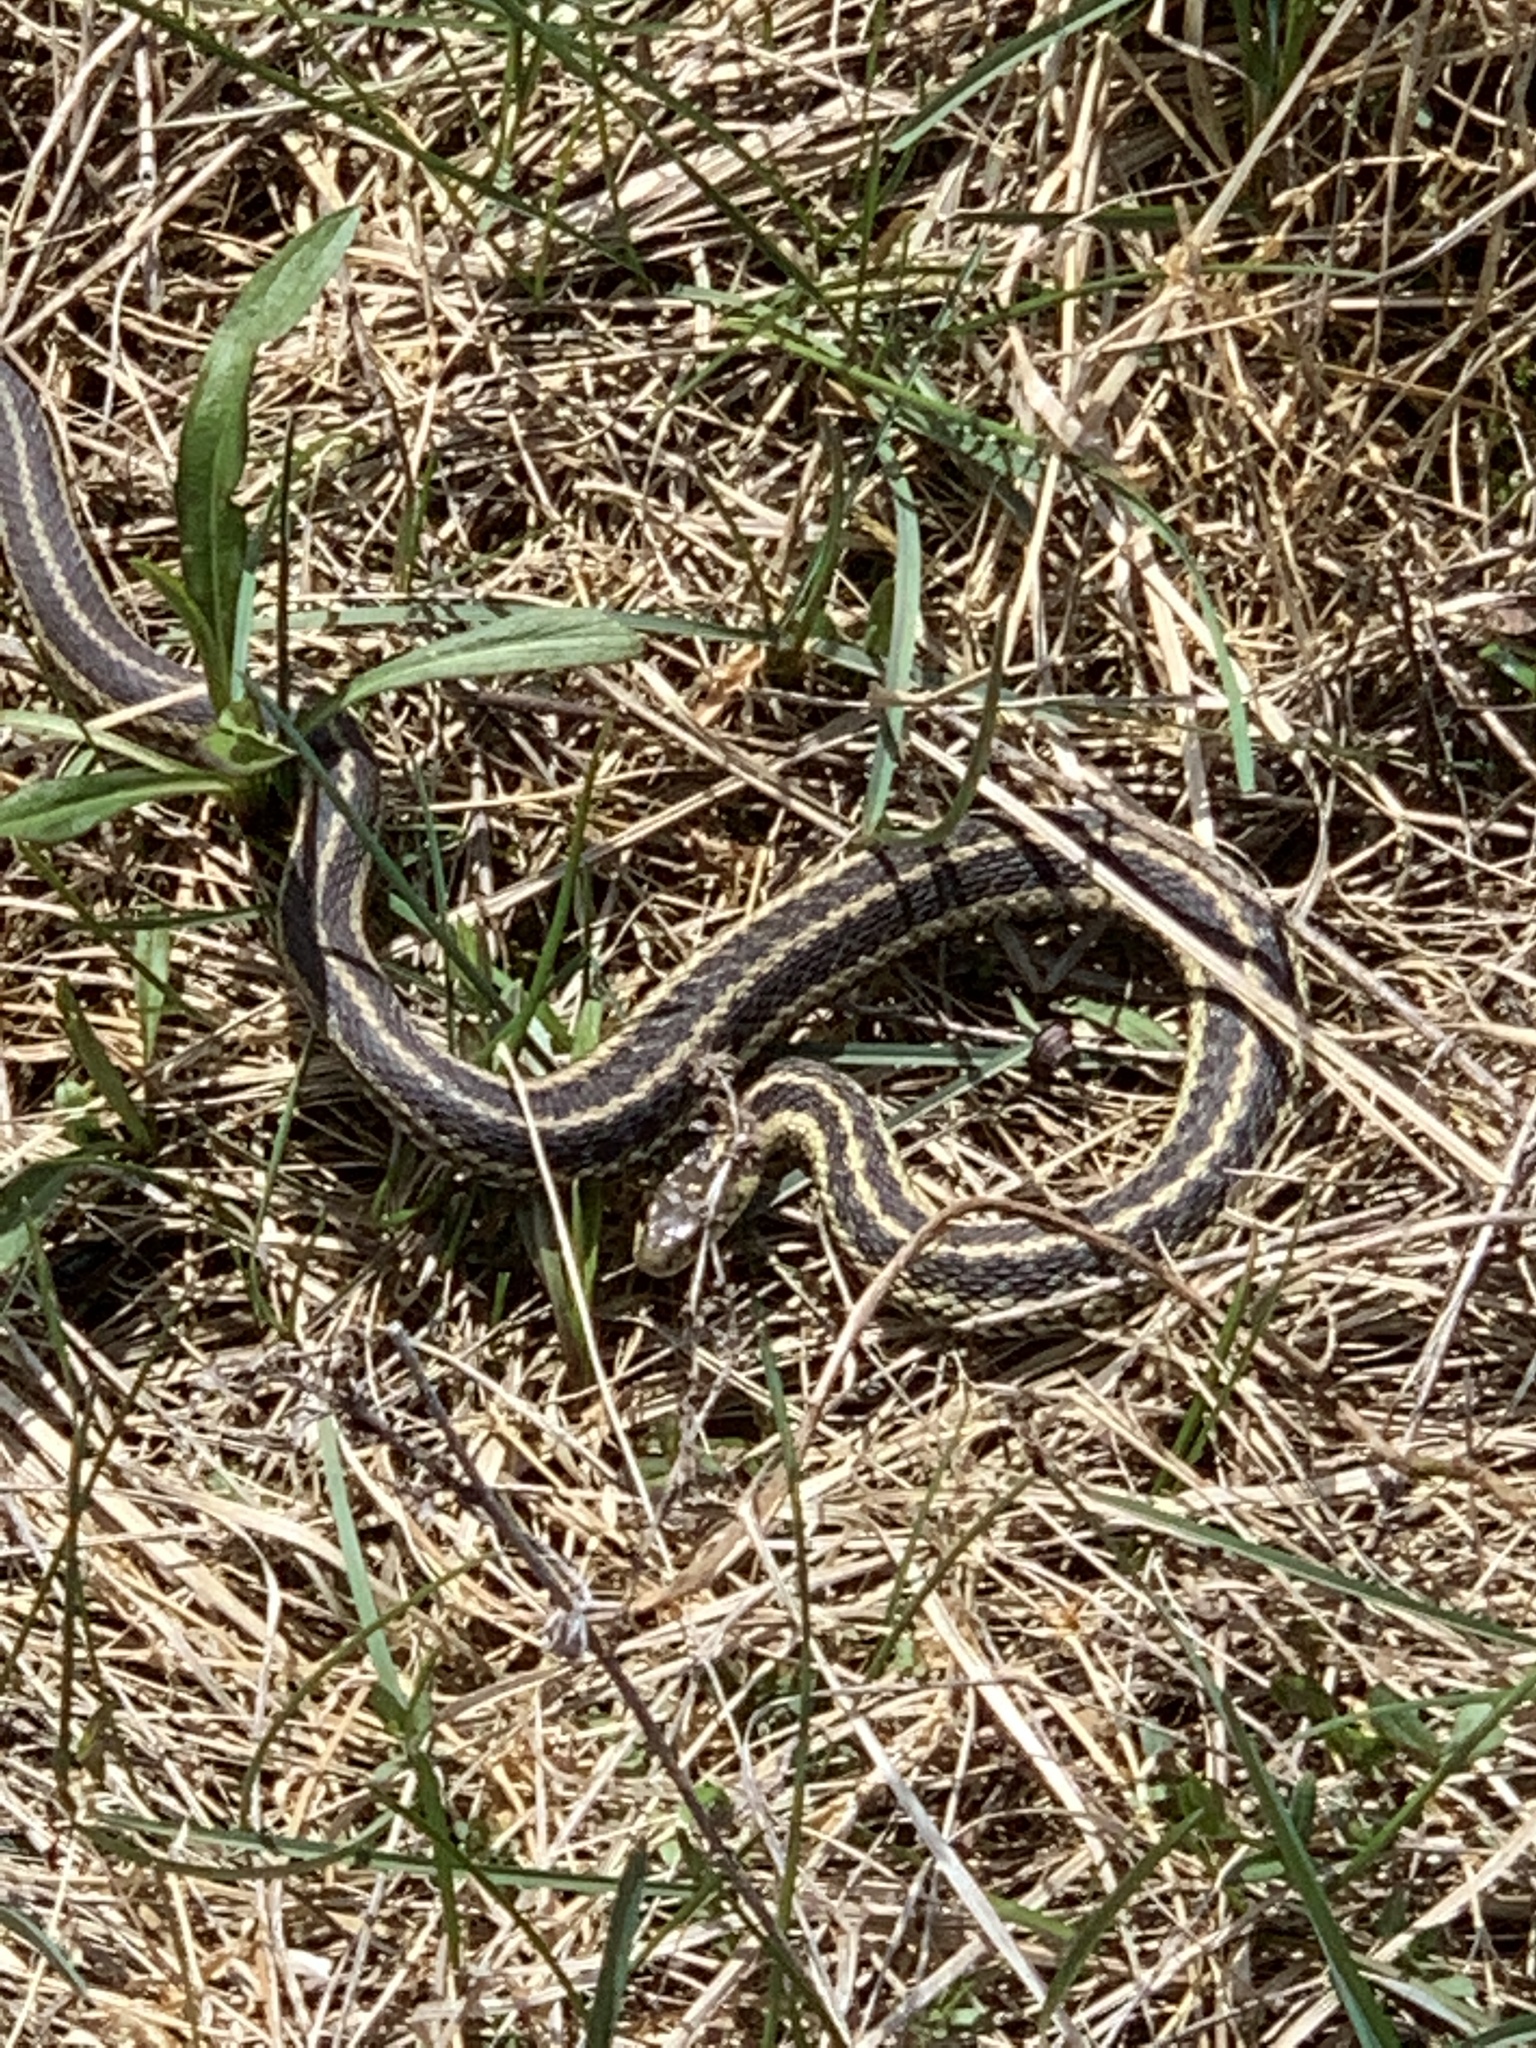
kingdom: Animalia
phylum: Chordata
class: Squamata
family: Colubridae
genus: Thamnophis
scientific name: Thamnophis sirtalis
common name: Common garter snake
